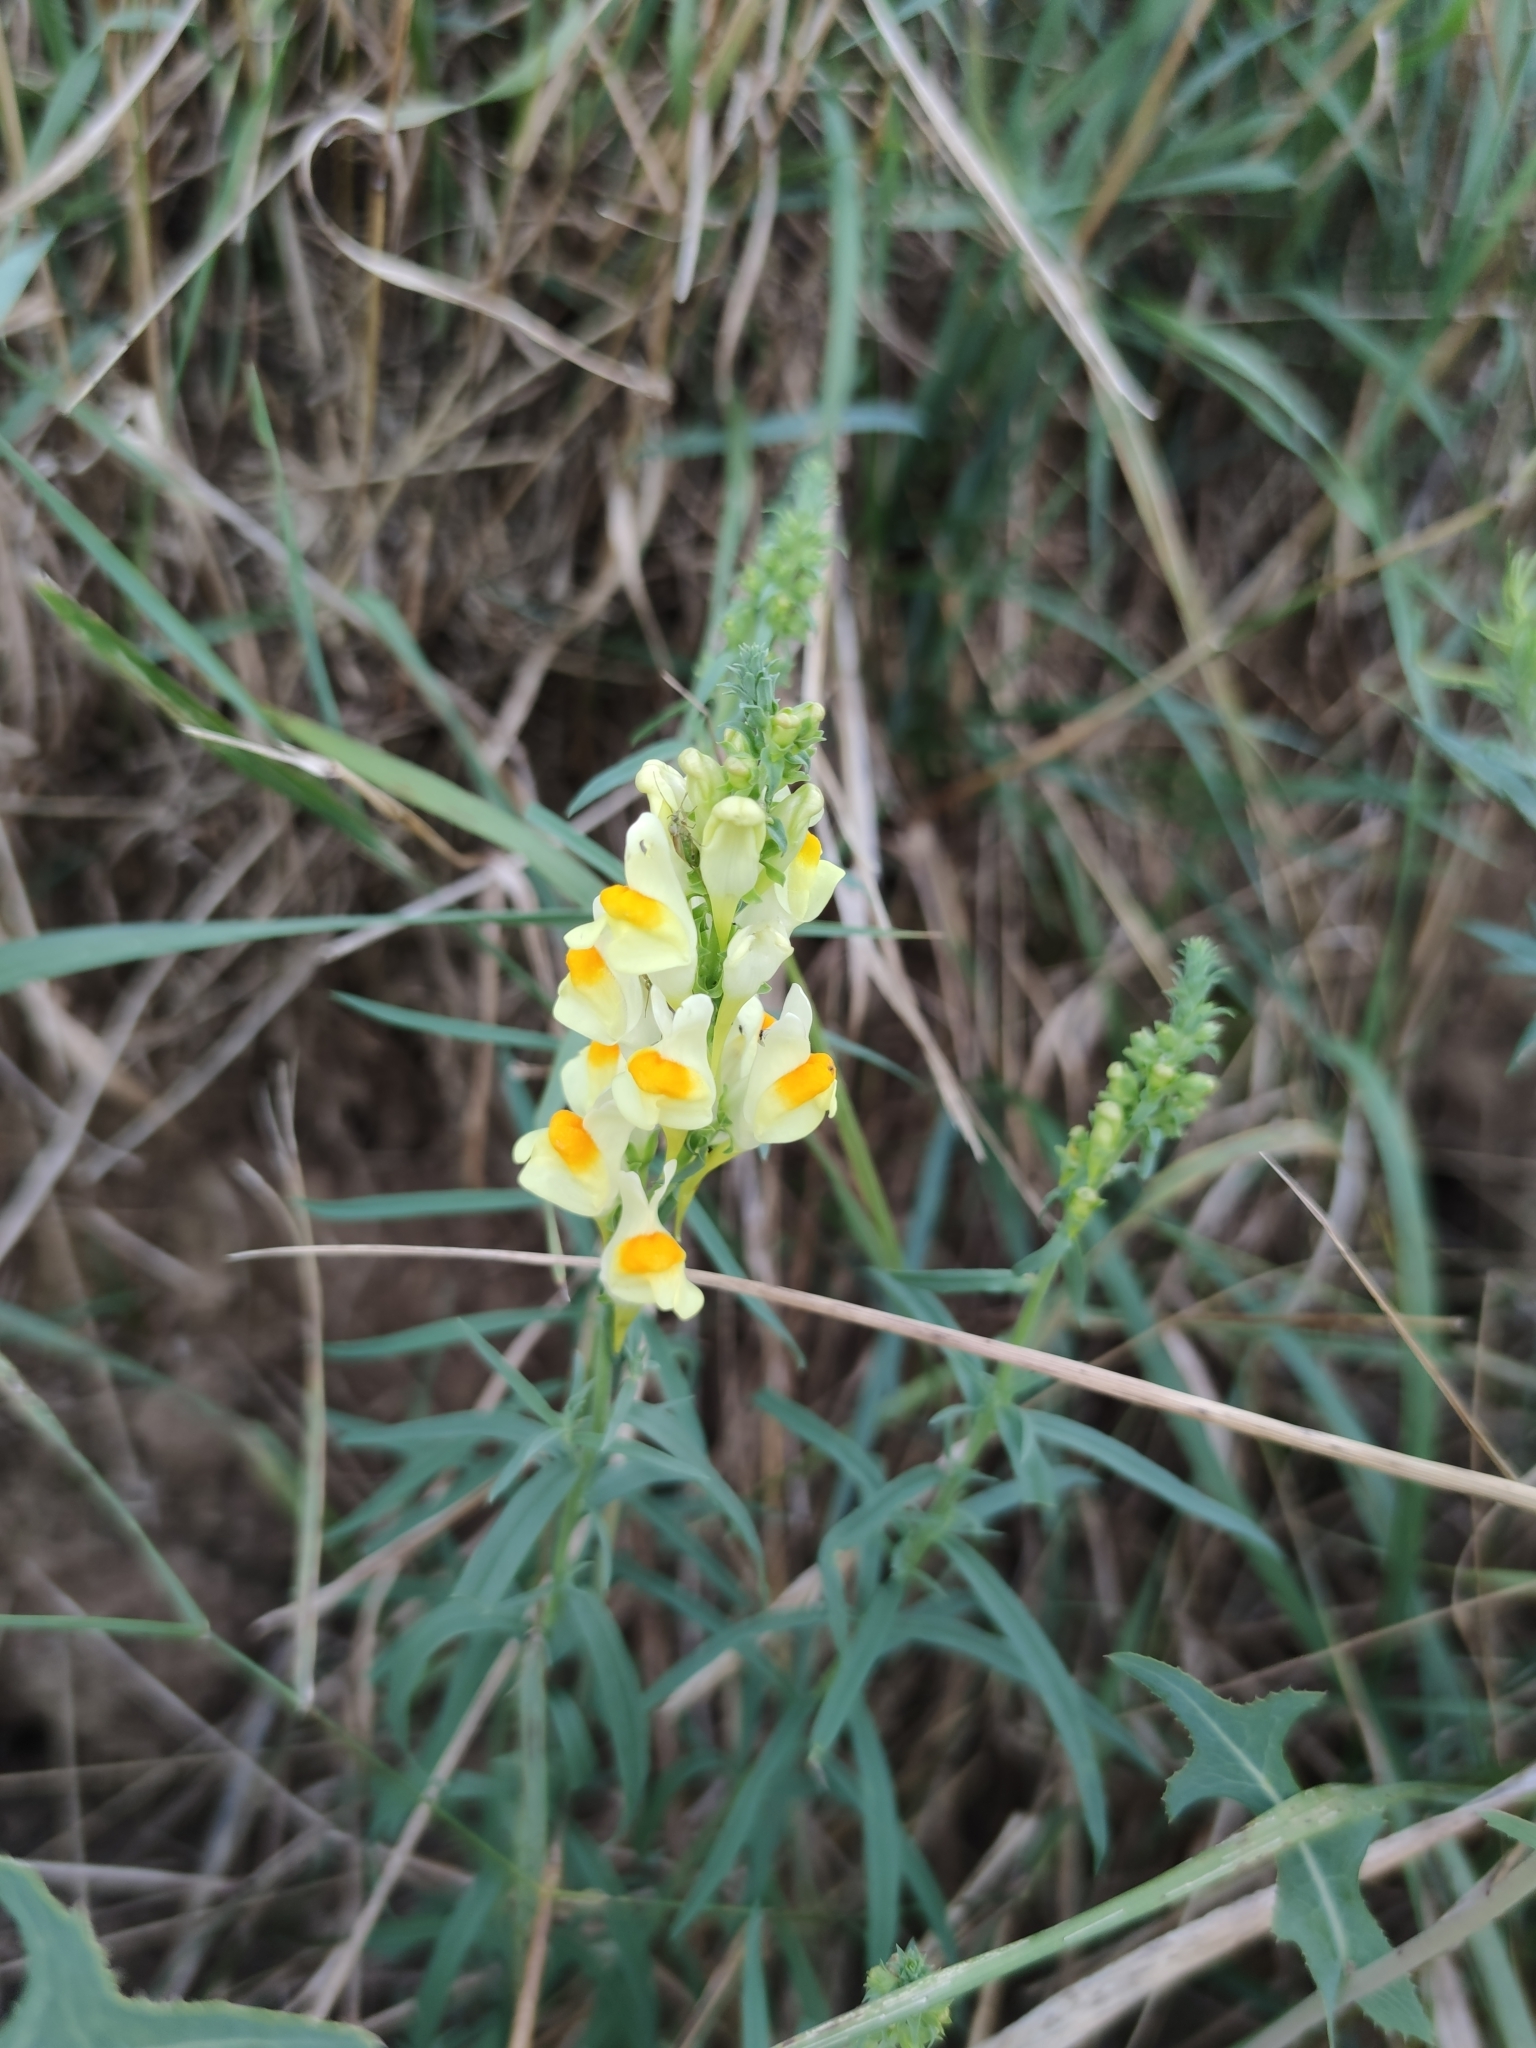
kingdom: Plantae
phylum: Tracheophyta
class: Magnoliopsida
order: Lamiales
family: Plantaginaceae
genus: Linaria
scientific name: Linaria vulgaris
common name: Butter and eggs
